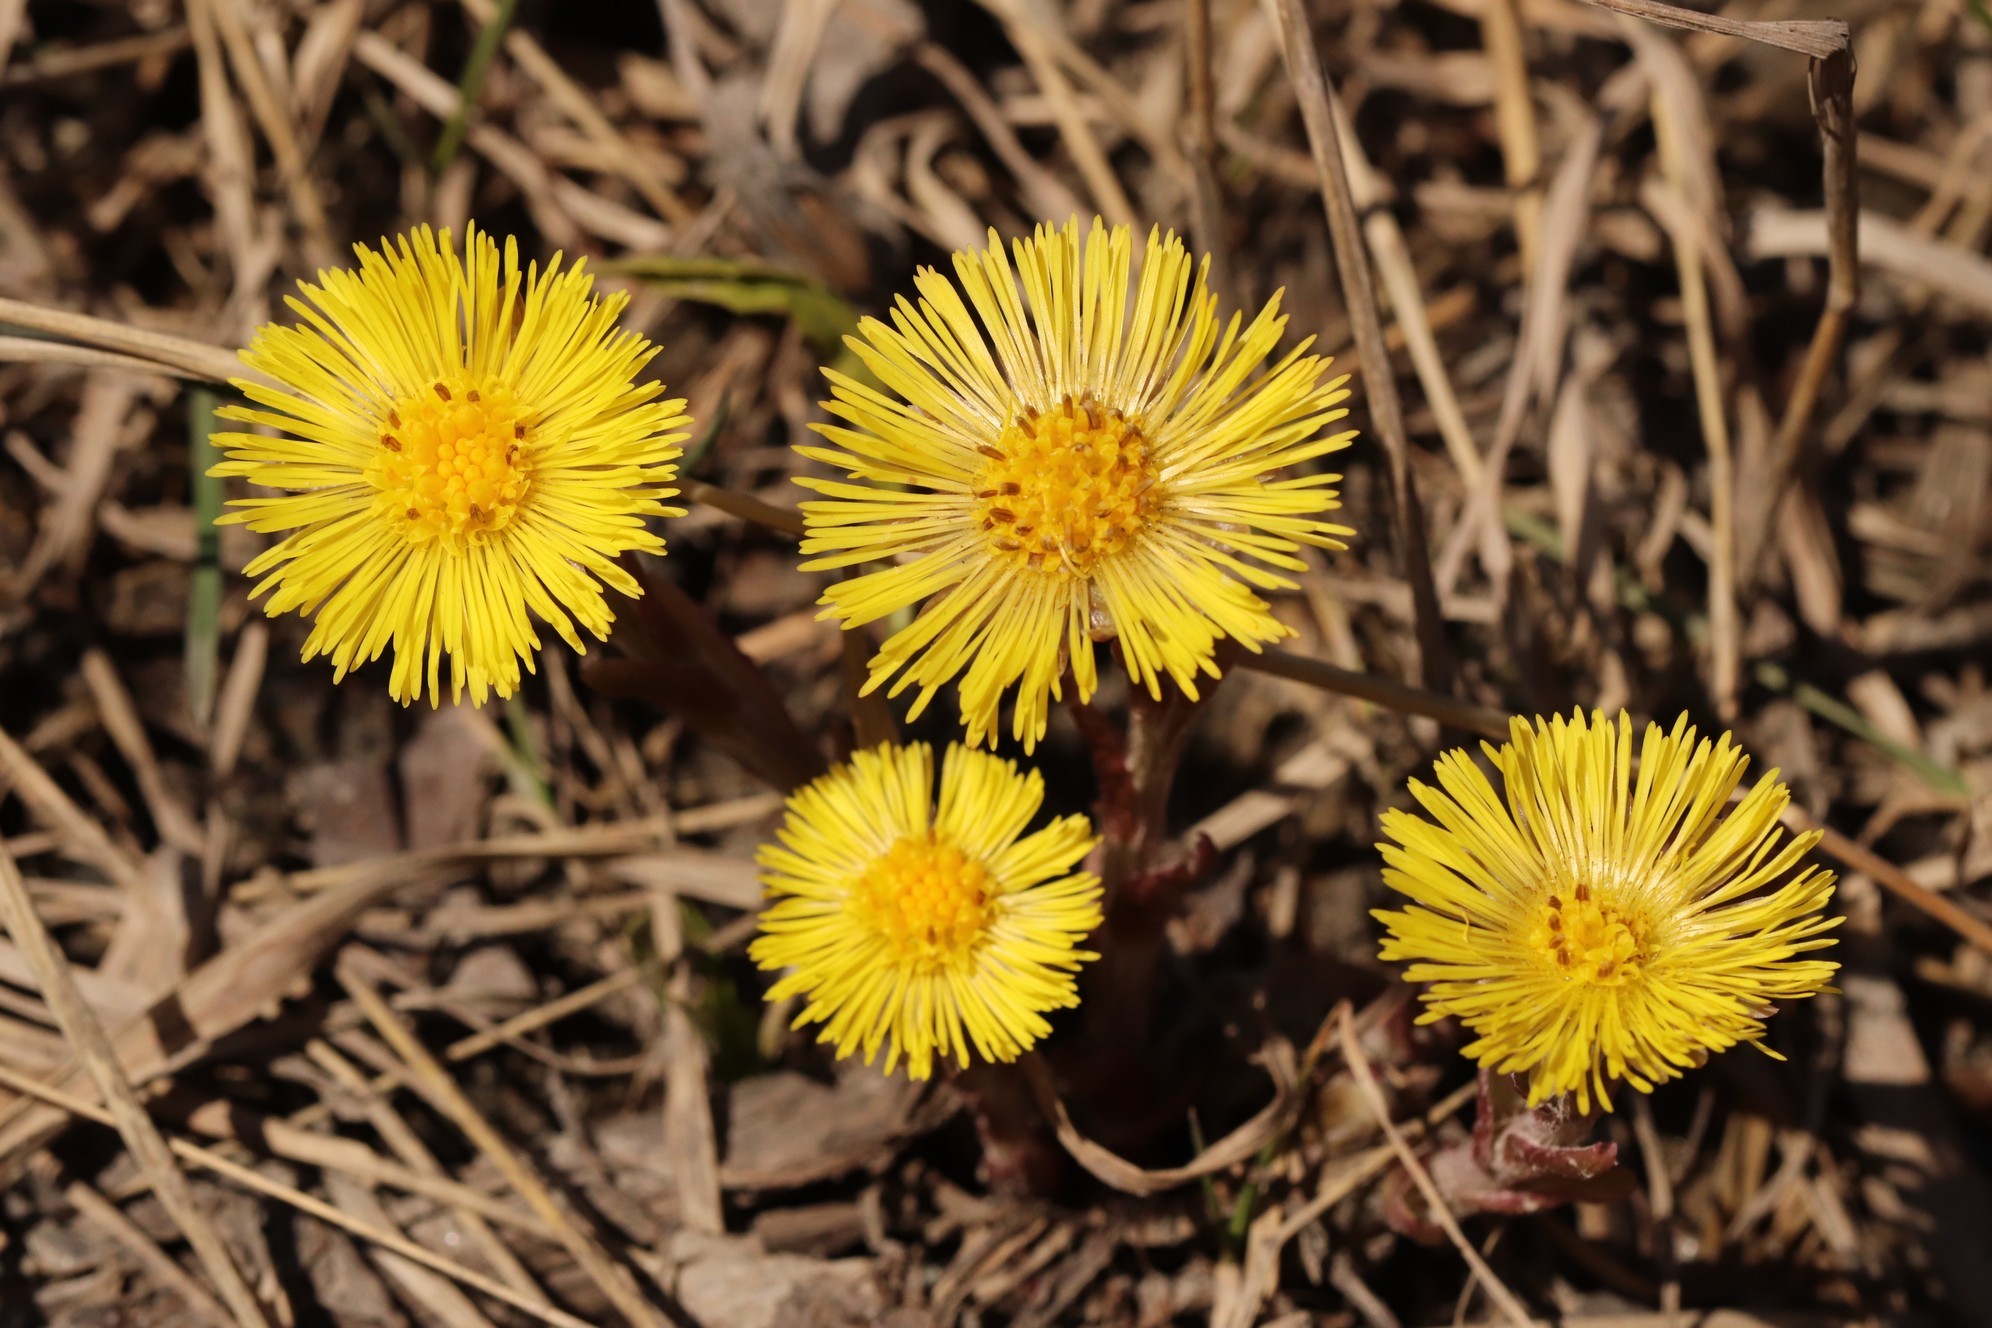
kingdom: Plantae
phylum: Tracheophyta
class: Magnoliopsida
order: Asterales
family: Asteraceae
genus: Tussilago
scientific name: Tussilago farfara
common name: Coltsfoot
